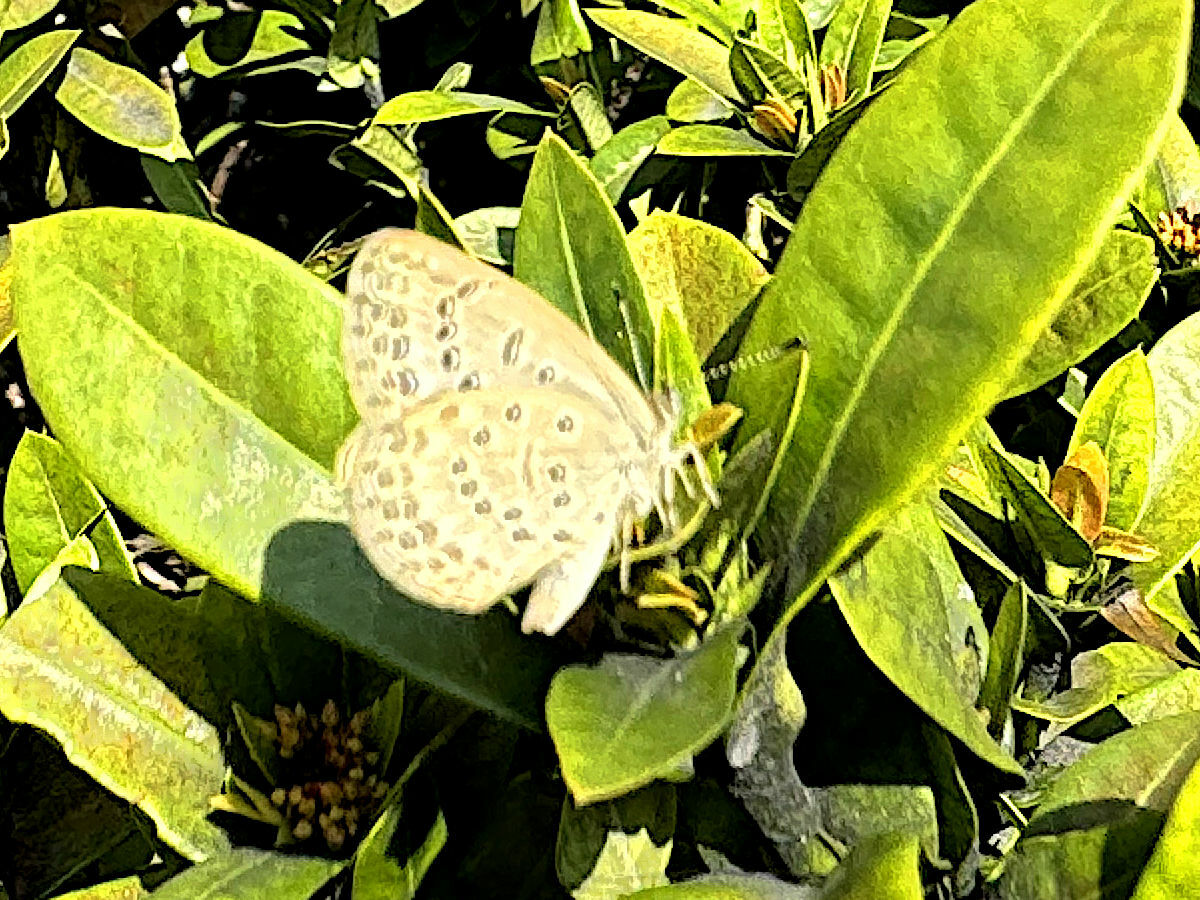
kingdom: Animalia
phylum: Arthropoda
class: Insecta
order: Lepidoptera
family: Lycaenidae
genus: Pseudozizeeria
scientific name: Pseudozizeeria maha
